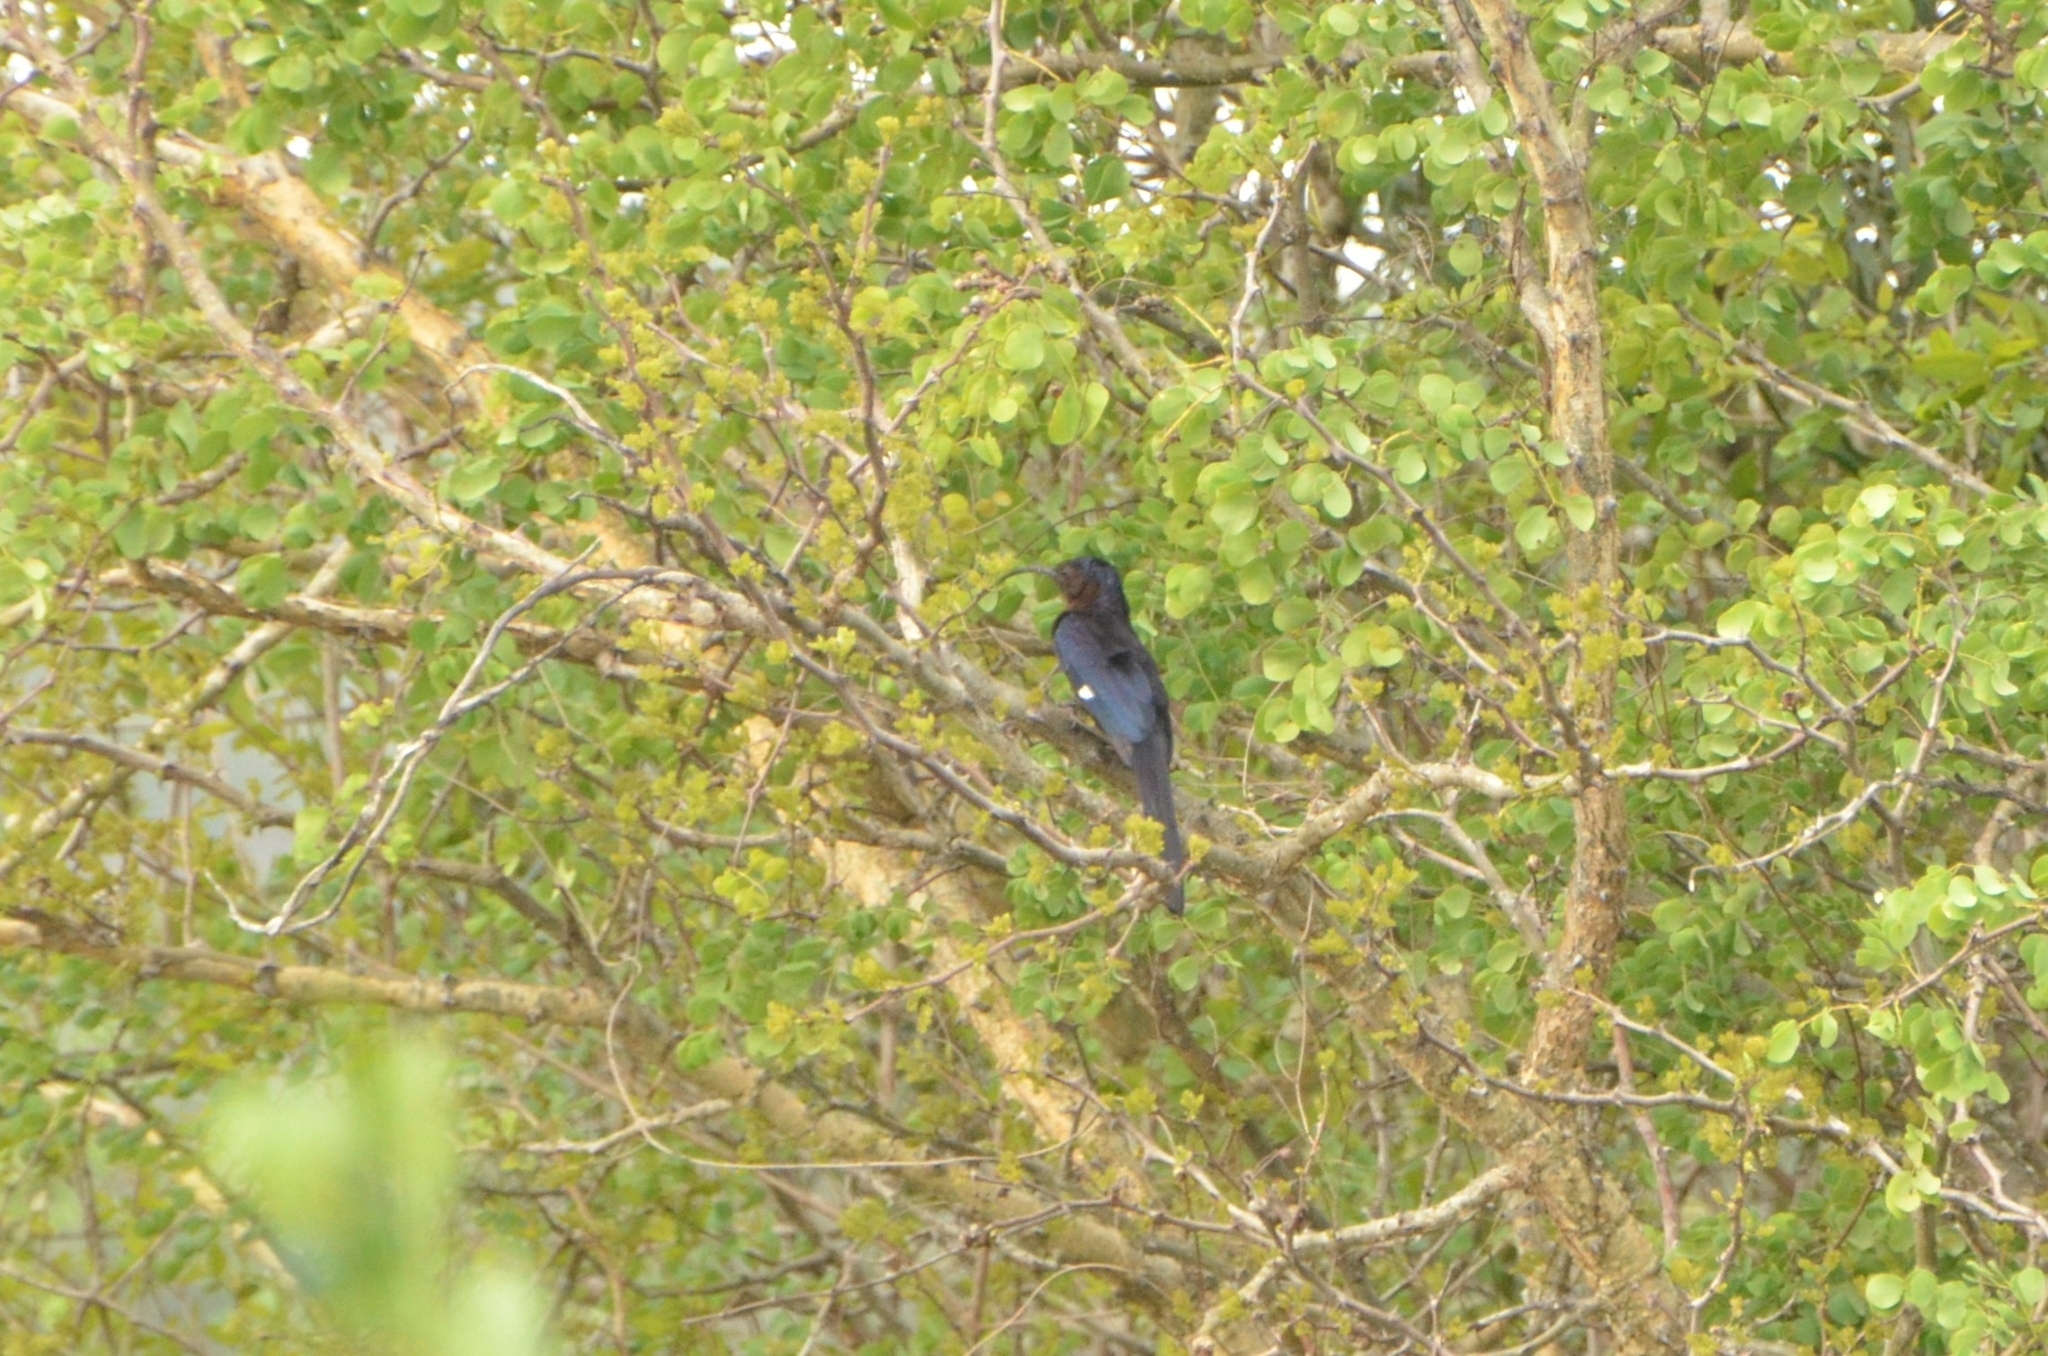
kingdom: Animalia
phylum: Chordata
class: Aves
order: Bucerotiformes
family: Phoeniculidae
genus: Rhinopomastus
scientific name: Rhinopomastus cyanomelas
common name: Common scimitarbill
